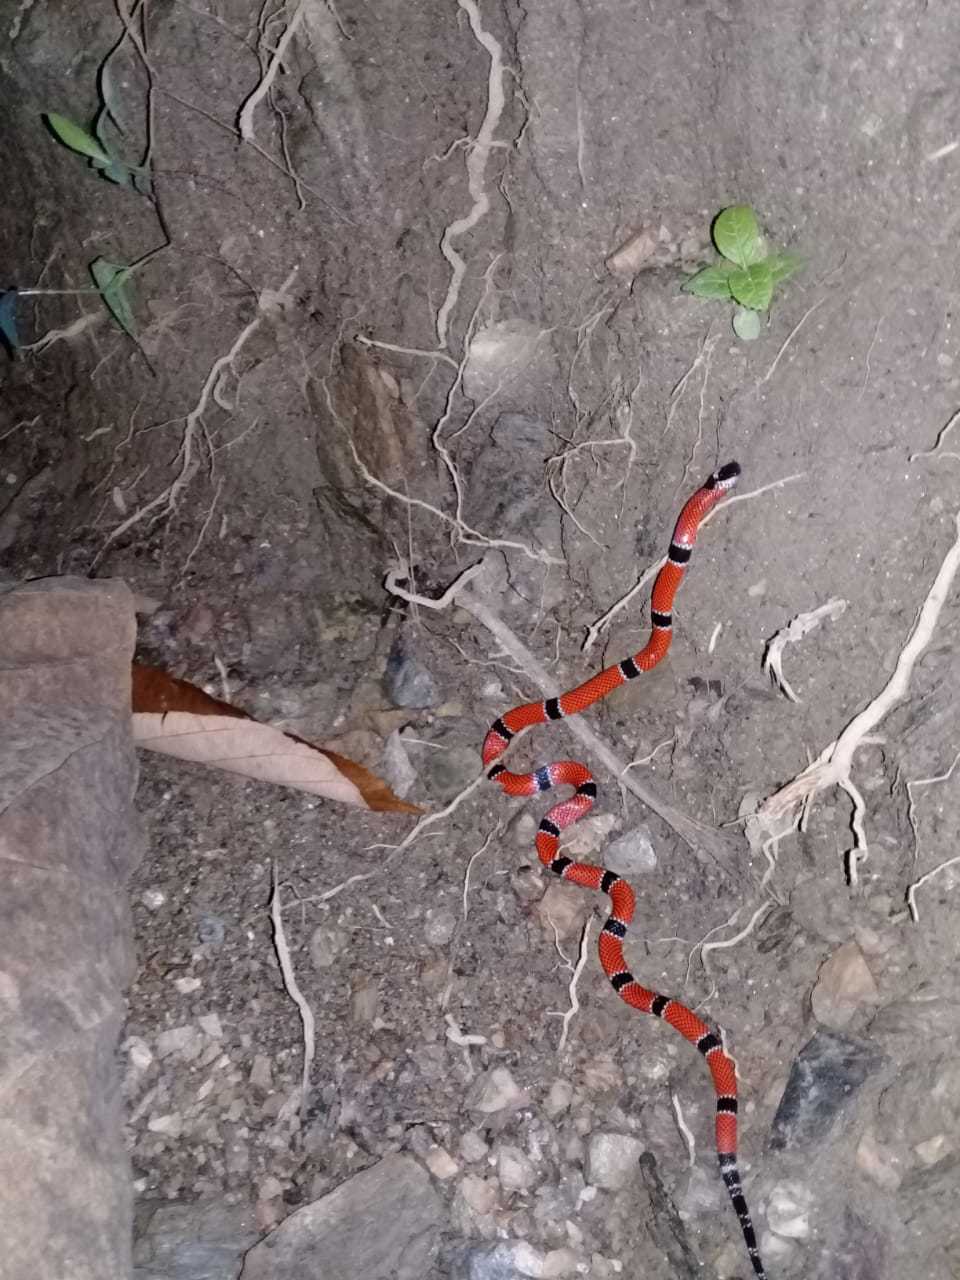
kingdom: Animalia
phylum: Chordata
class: Squamata
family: Elapidae
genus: Micrurus
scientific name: Micrurus dumerilii
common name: Antioquian coral snake [antioquiensis]
